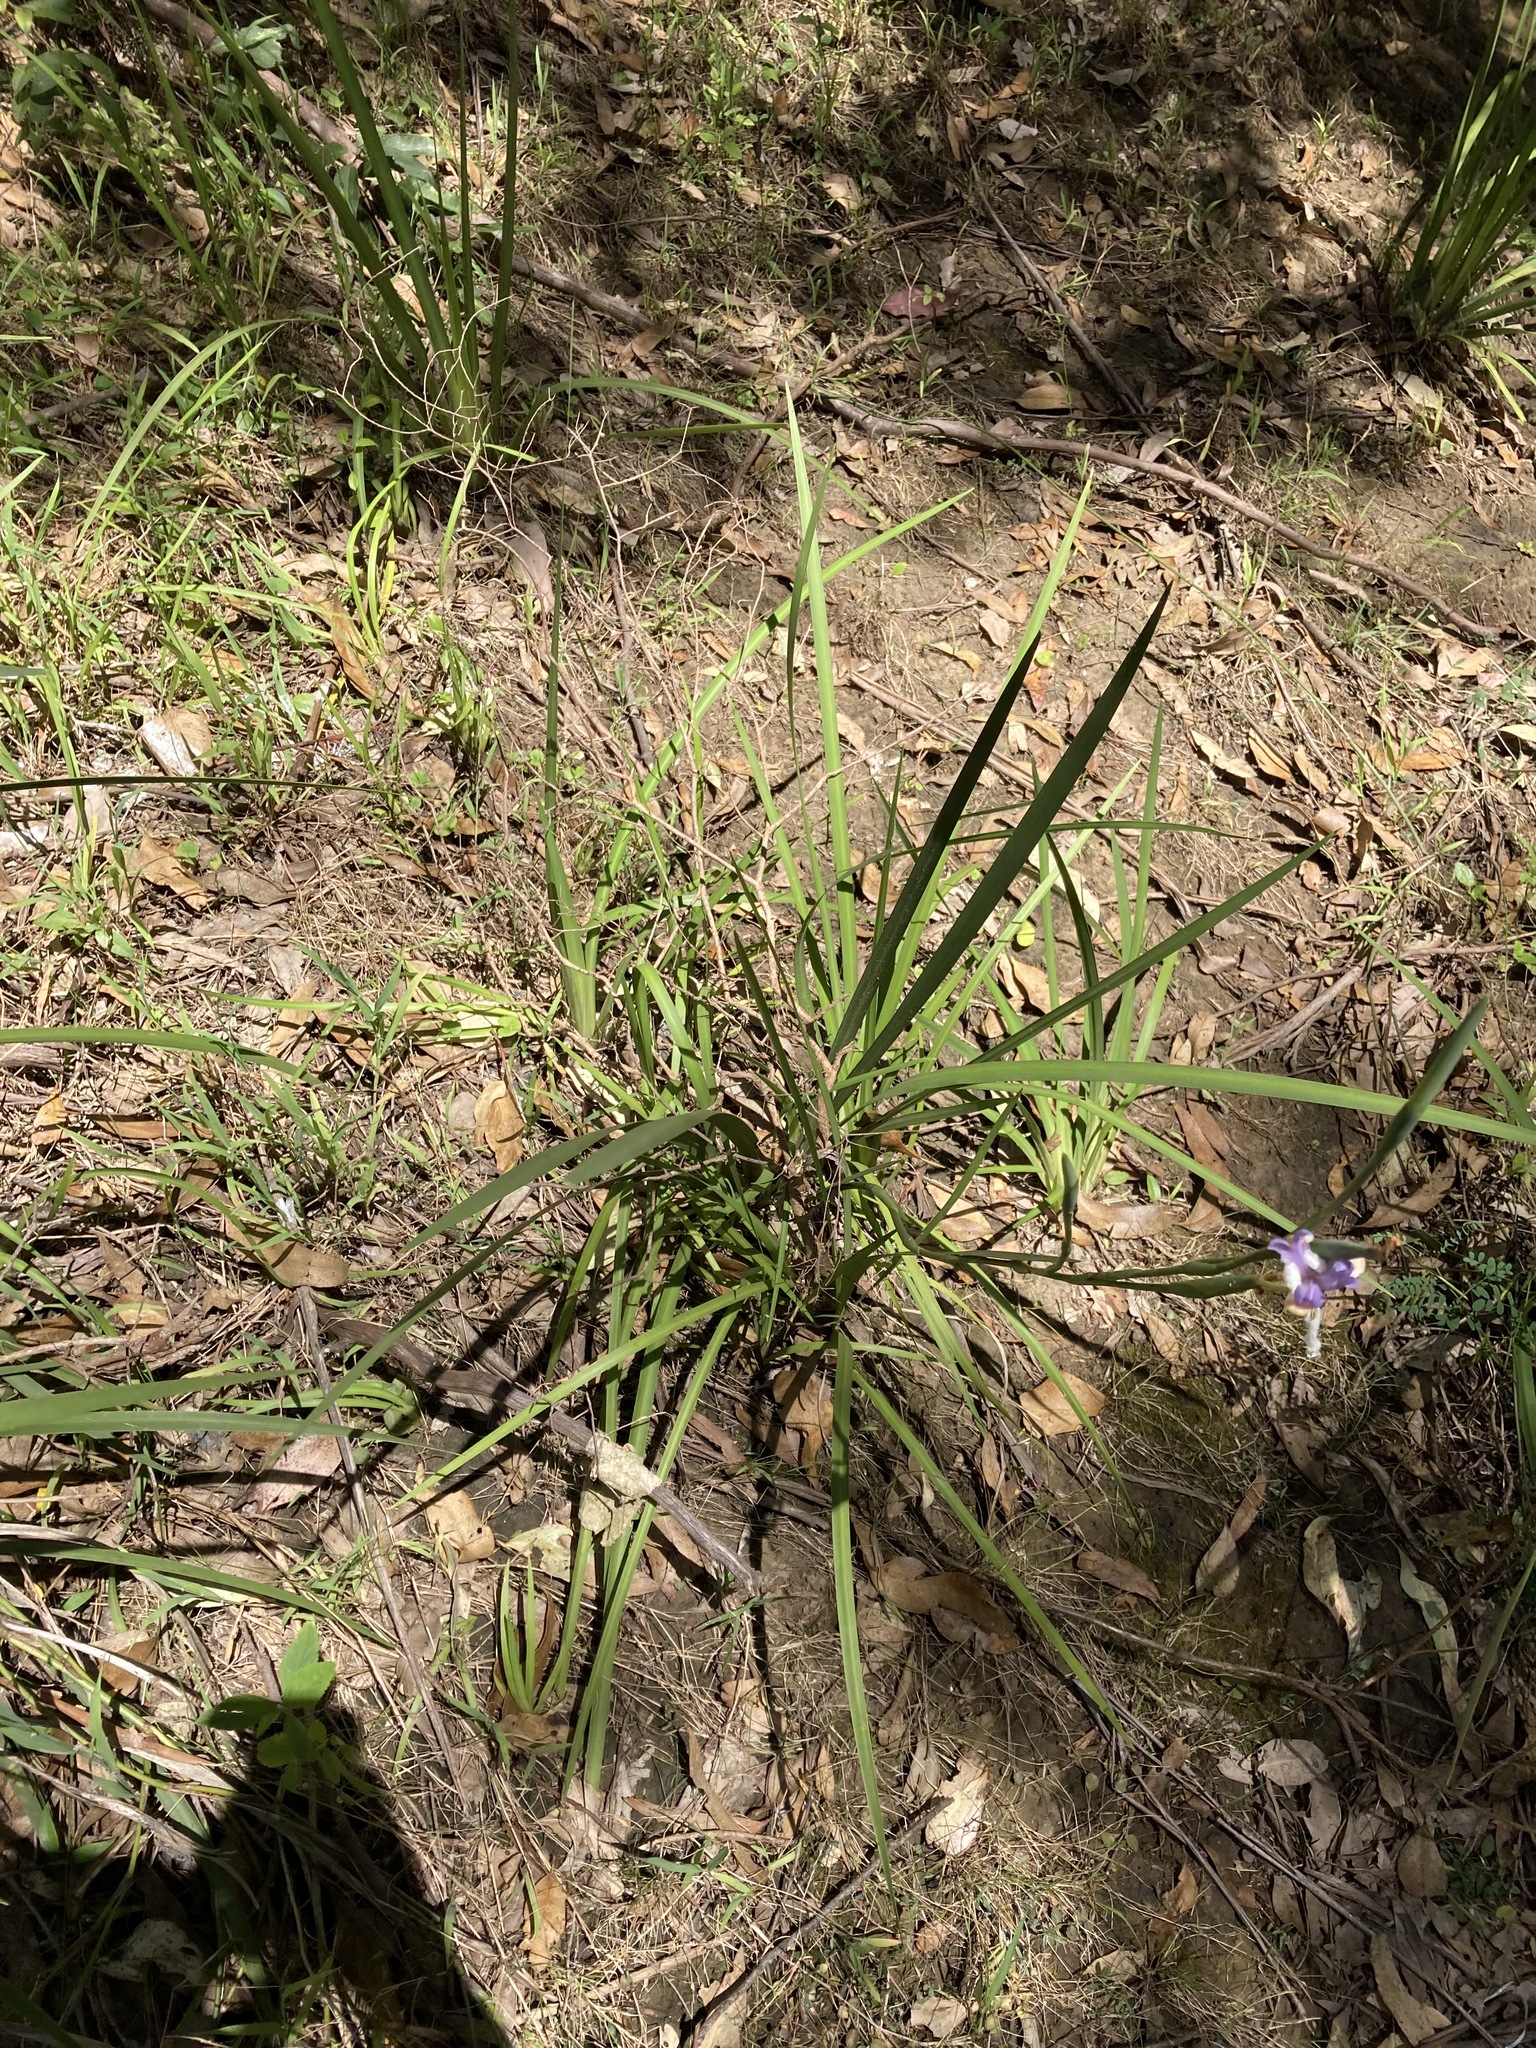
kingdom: Plantae
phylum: Tracheophyta
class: Liliopsida
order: Asparagales
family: Iridaceae
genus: Dietes
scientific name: Dietes grandiflora
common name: Wild iris
